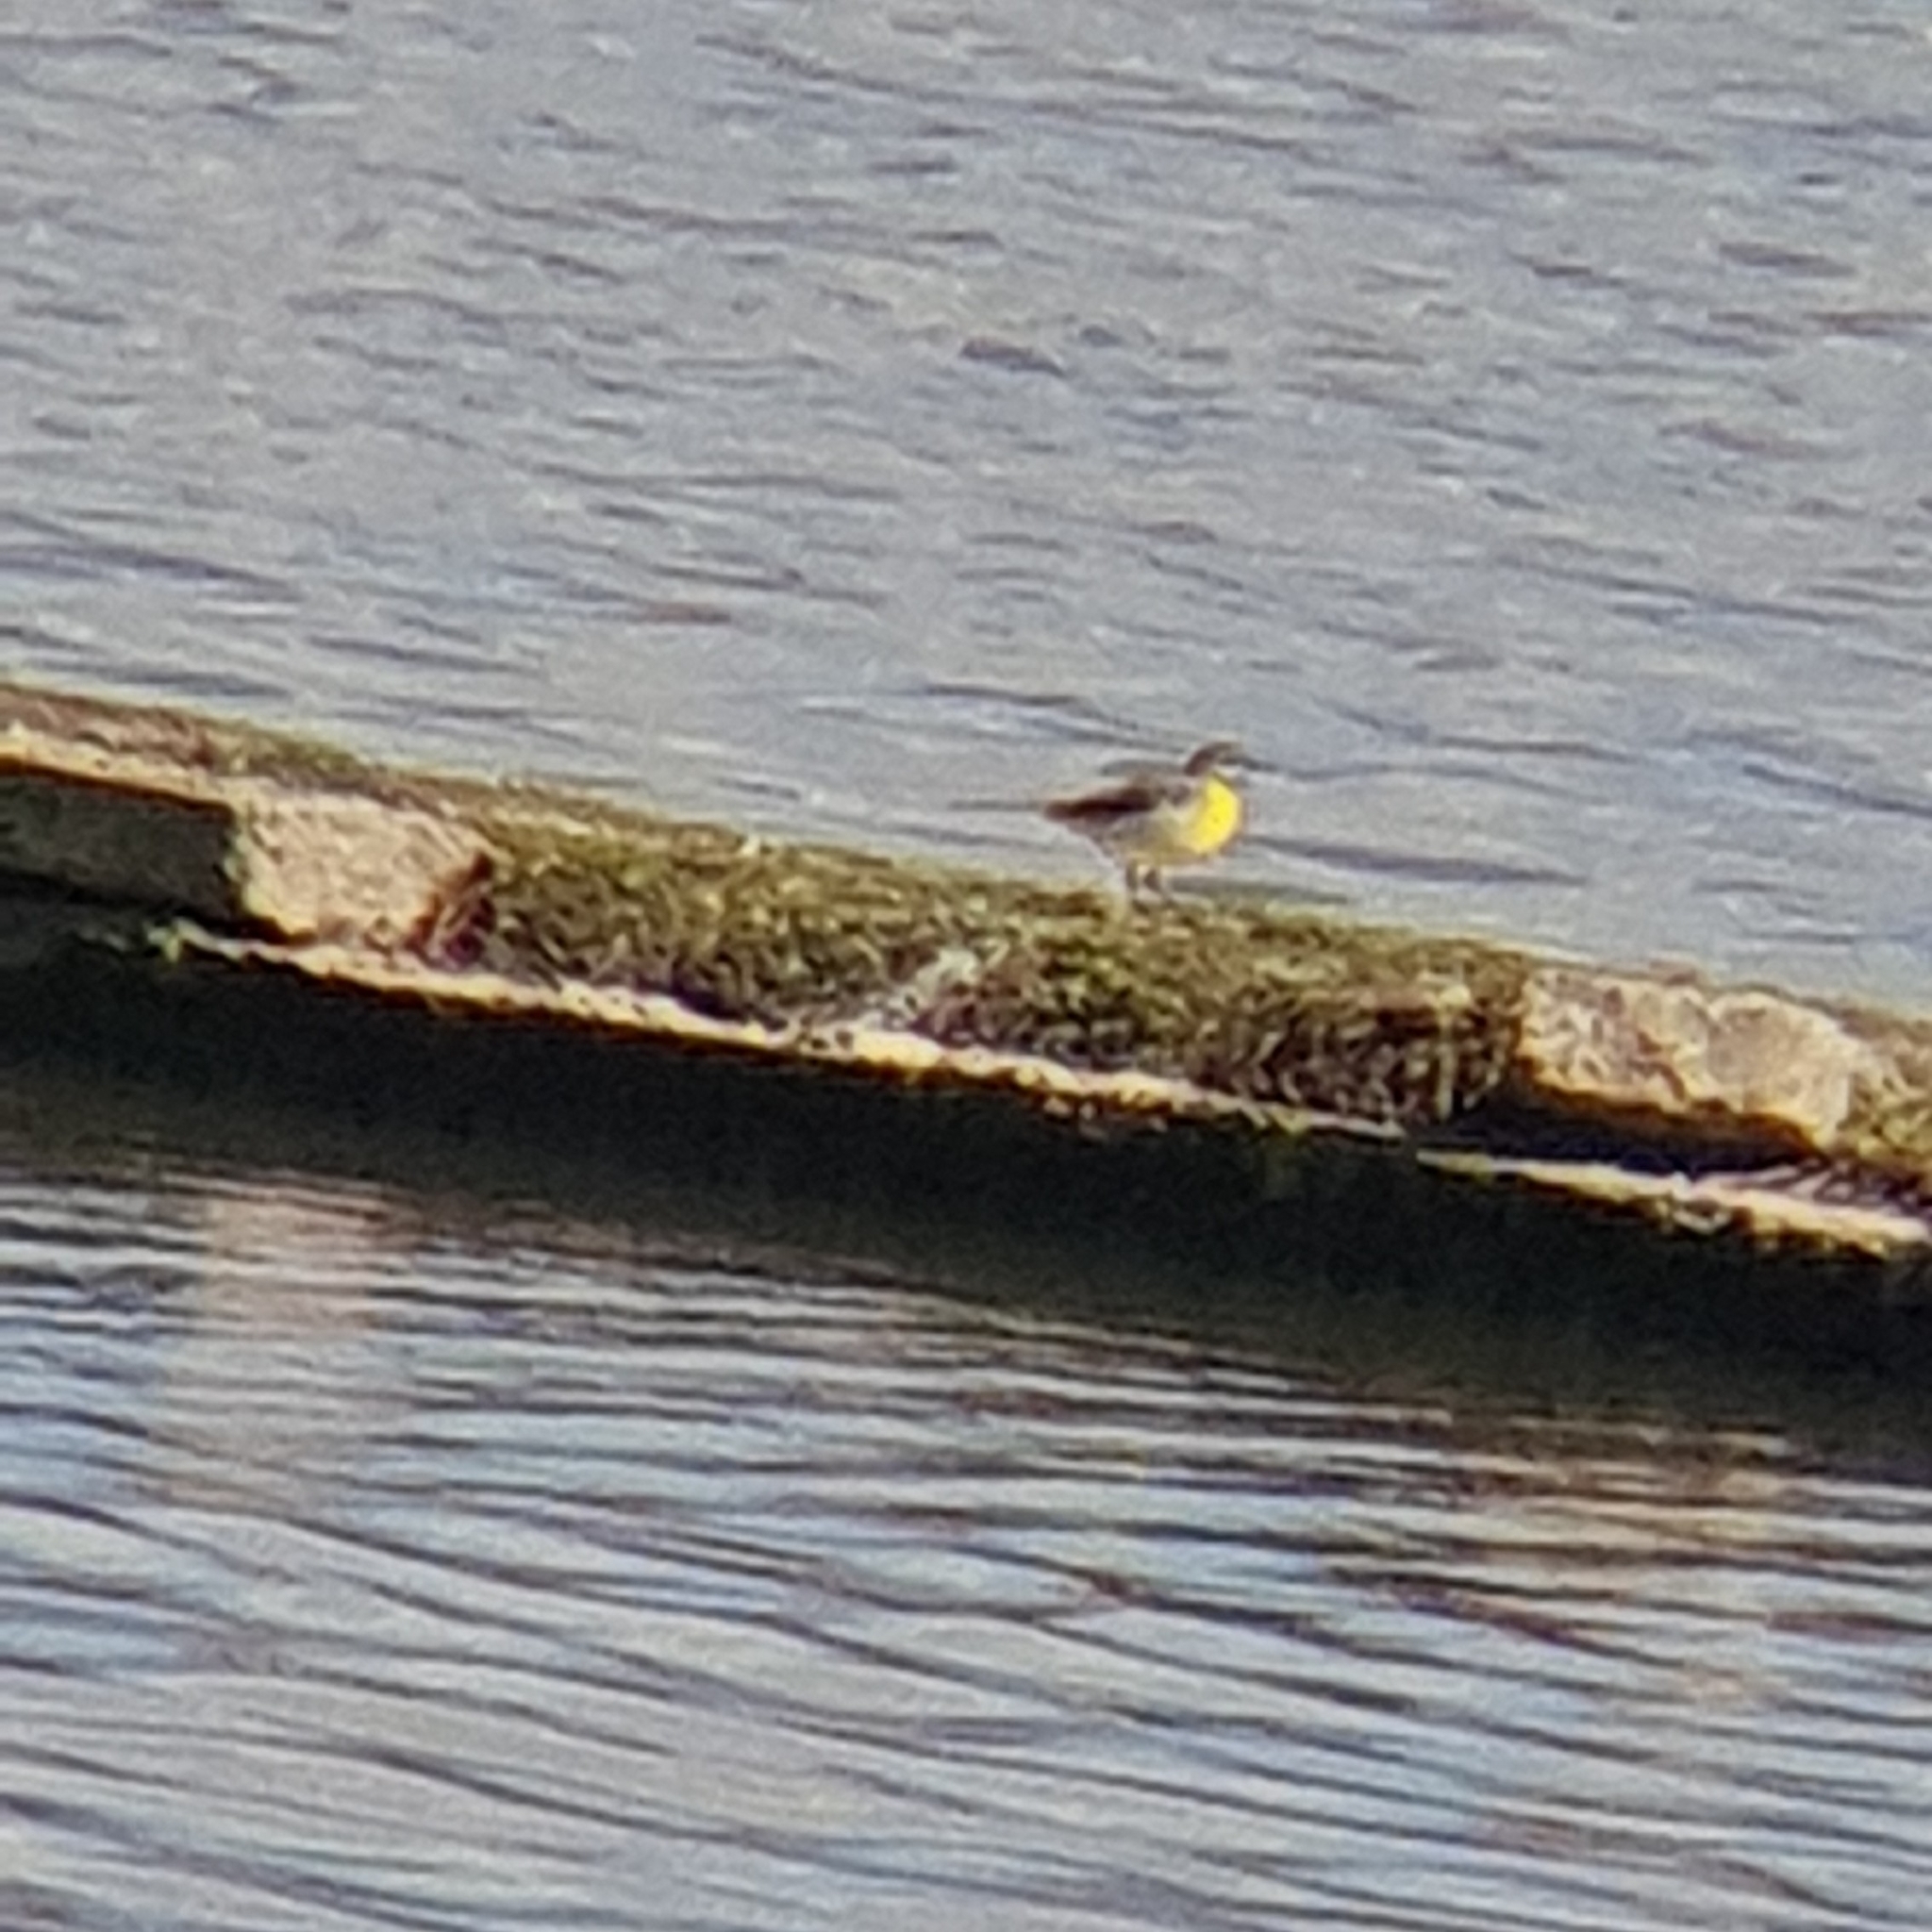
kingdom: Animalia
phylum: Chordata
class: Aves
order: Passeriformes
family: Motacillidae
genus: Motacilla
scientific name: Motacilla flava
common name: Western yellow wagtail
